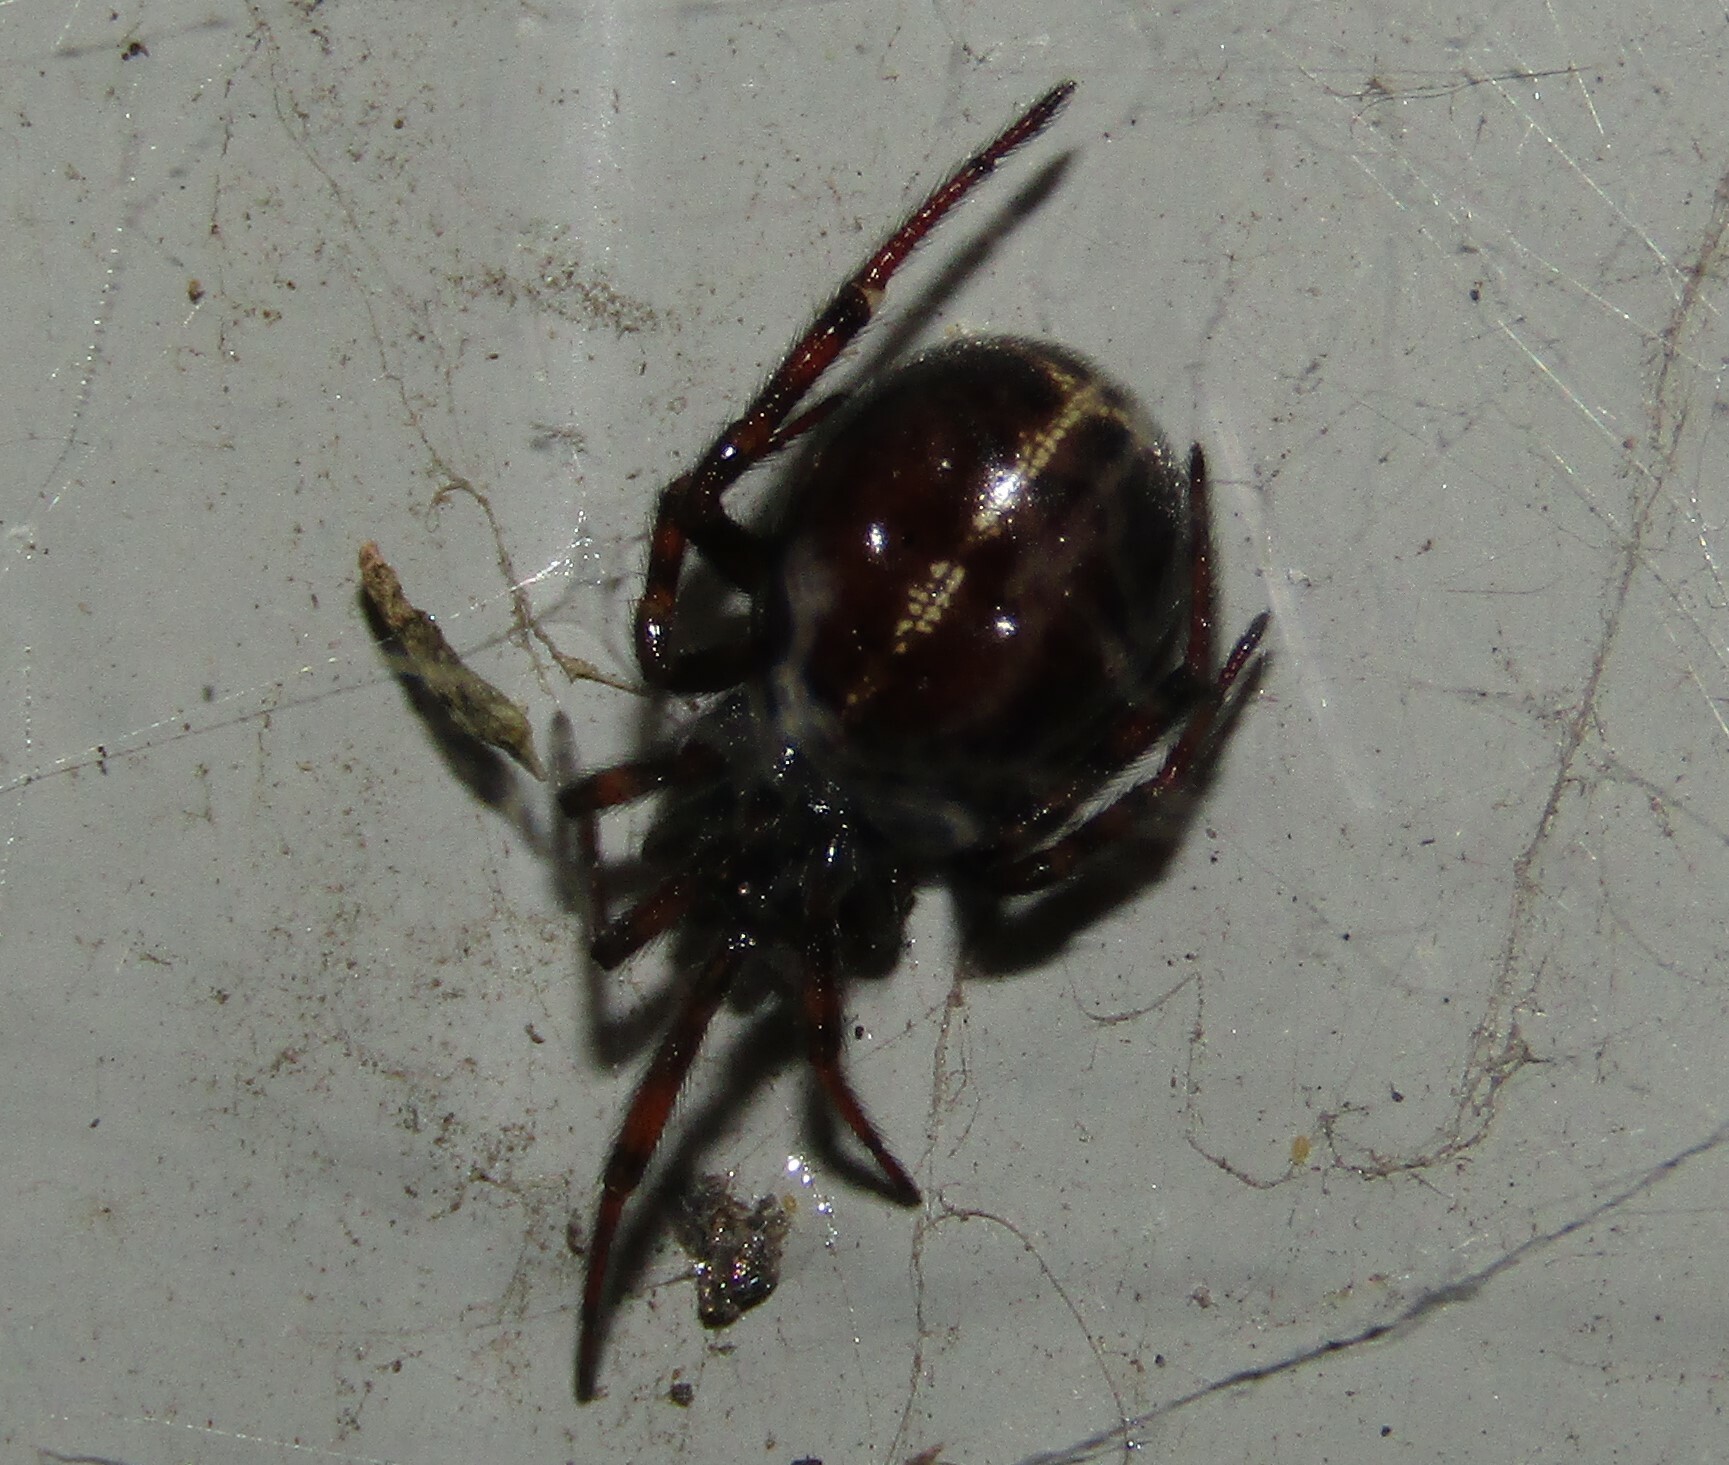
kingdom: Animalia
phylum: Arthropoda
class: Arachnida
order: Araneae
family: Theridiidae
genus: Steatoda
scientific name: Steatoda bipunctata
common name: False widow
